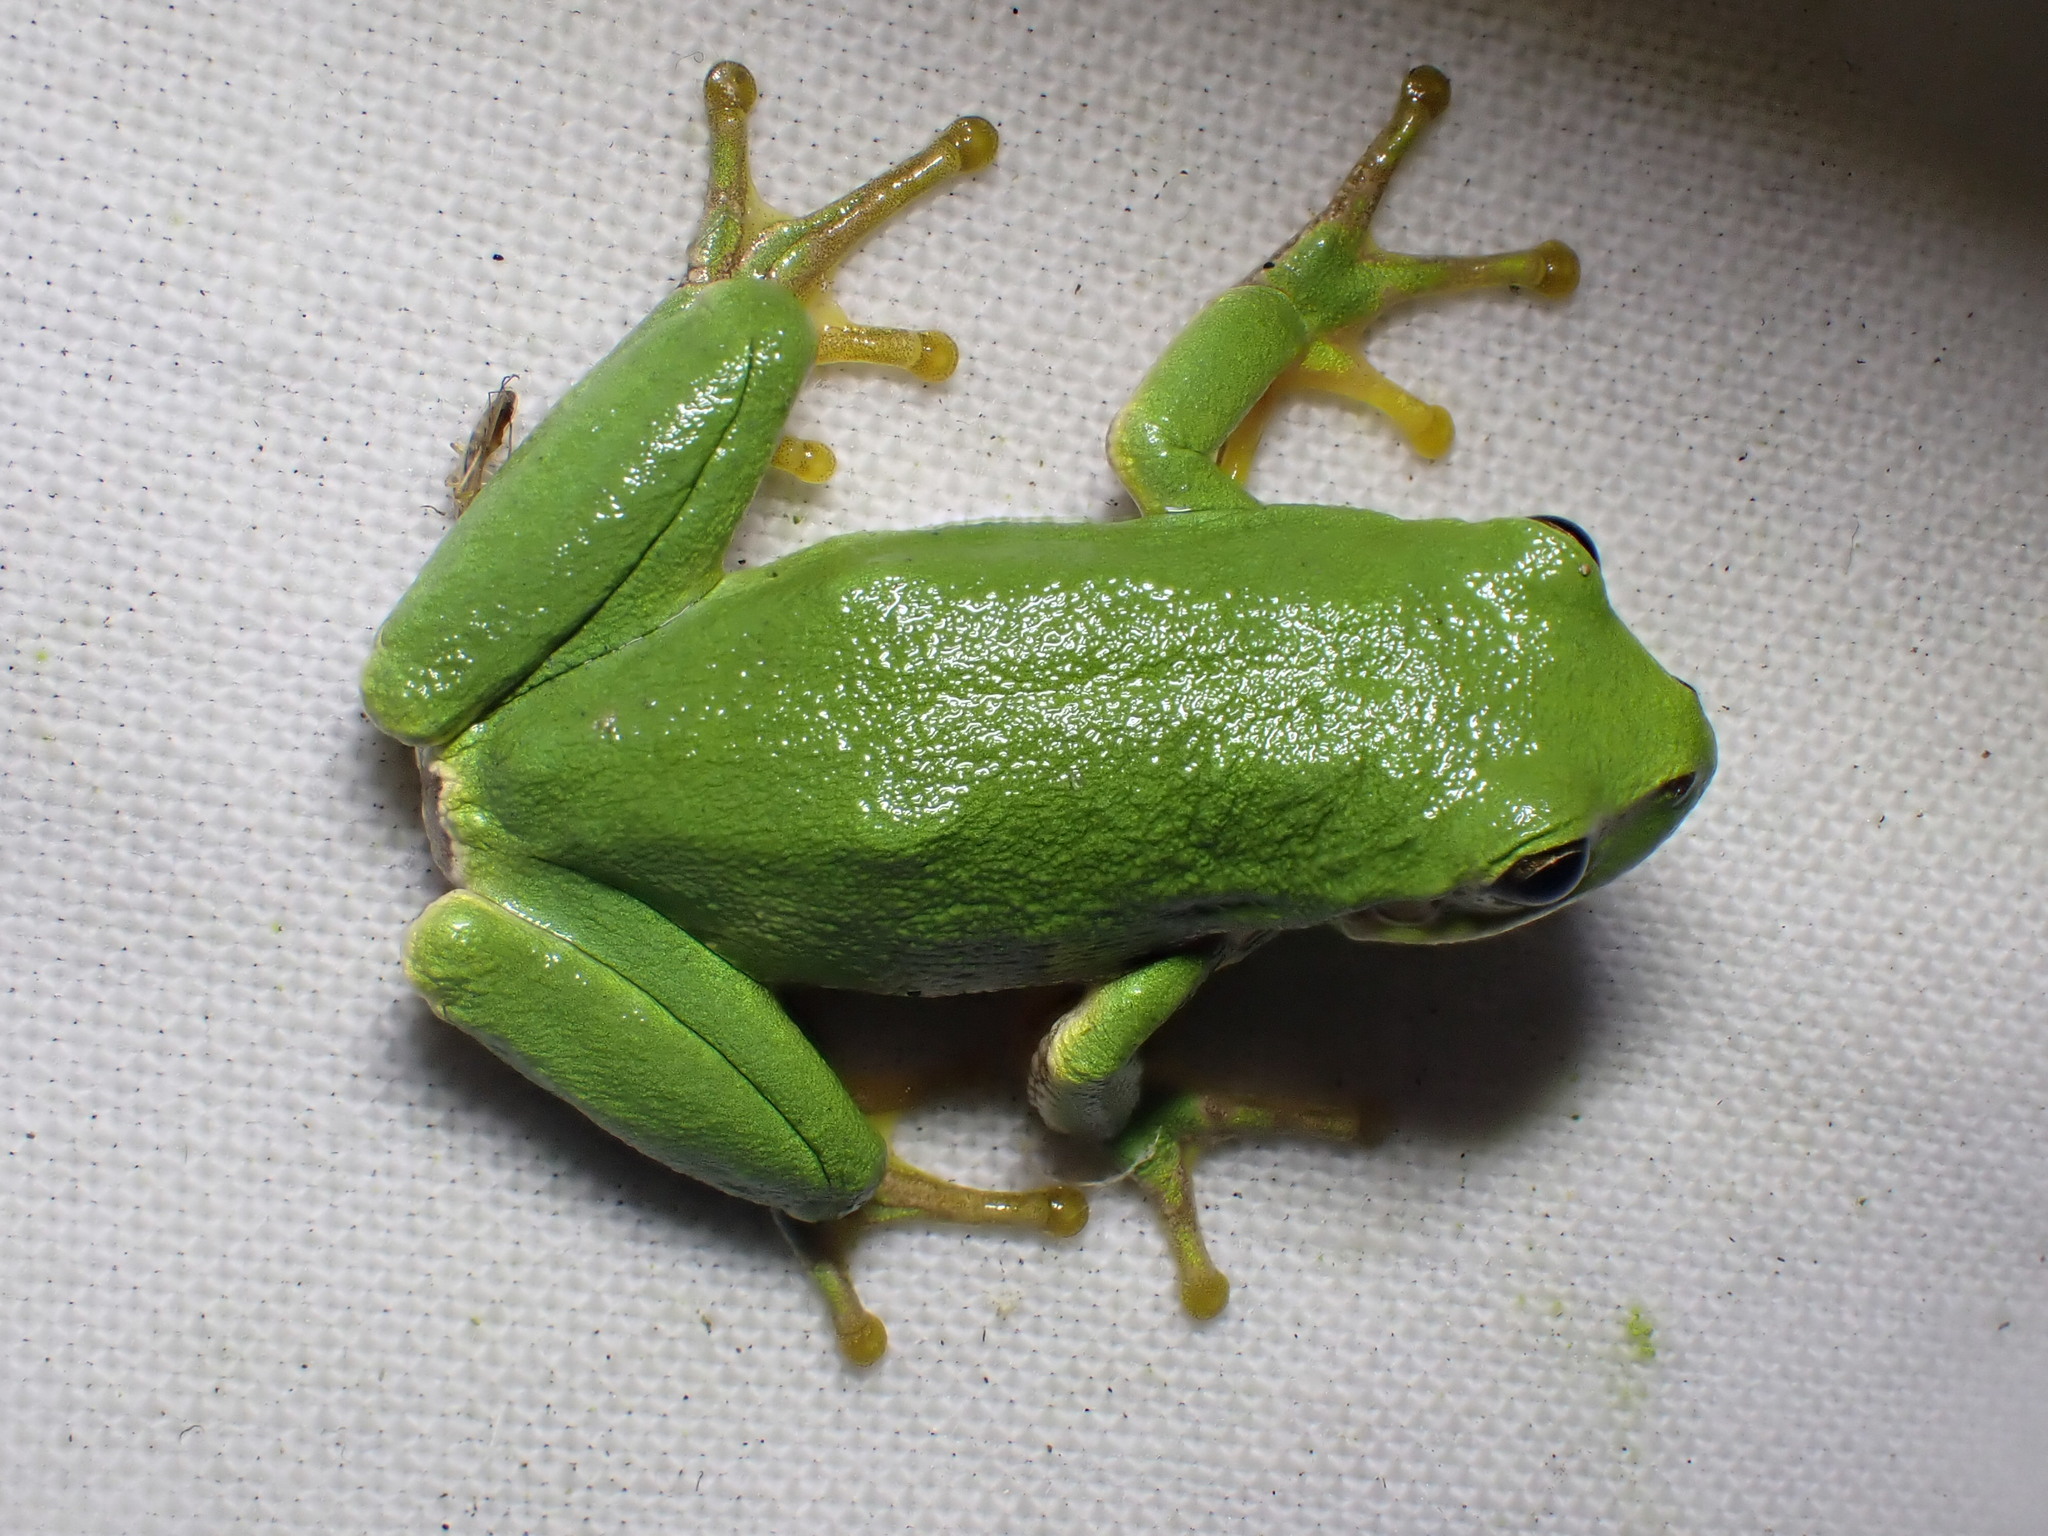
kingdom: Animalia
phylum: Chordata
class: Amphibia
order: Anura
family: Hylidae
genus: Hyla
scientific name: Hyla arborea
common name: Common tree frog
